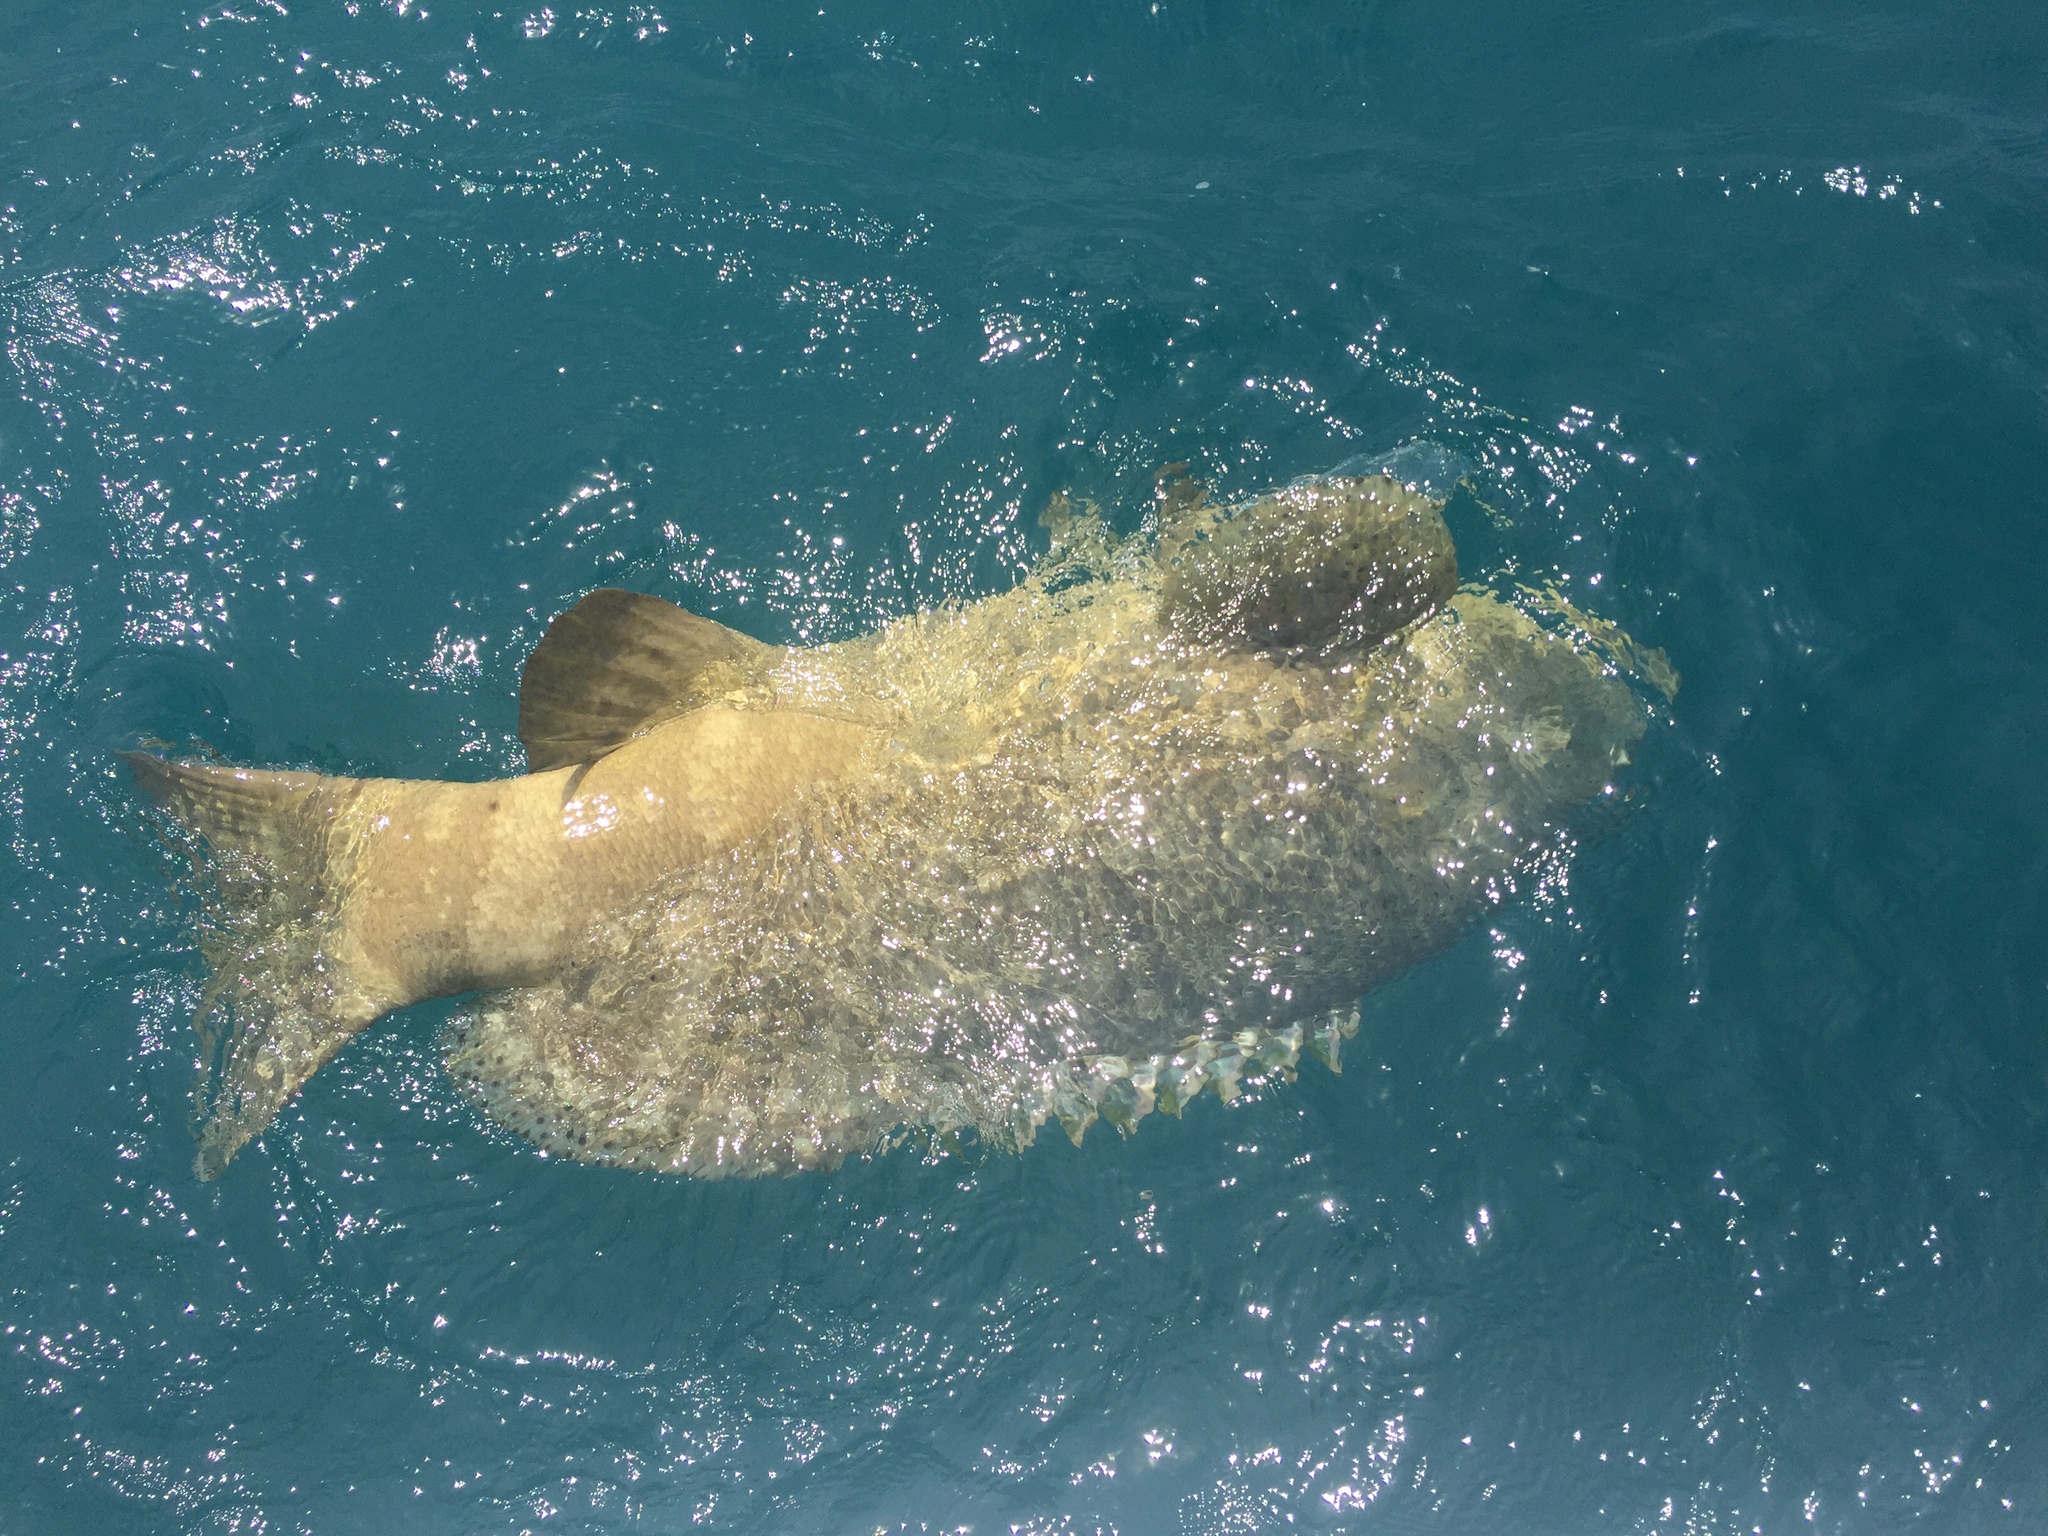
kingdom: Animalia
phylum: Chordata
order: Perciformes
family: Serranidae
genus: Epinephelus
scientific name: Epinephelus itajara
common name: Jewfish
